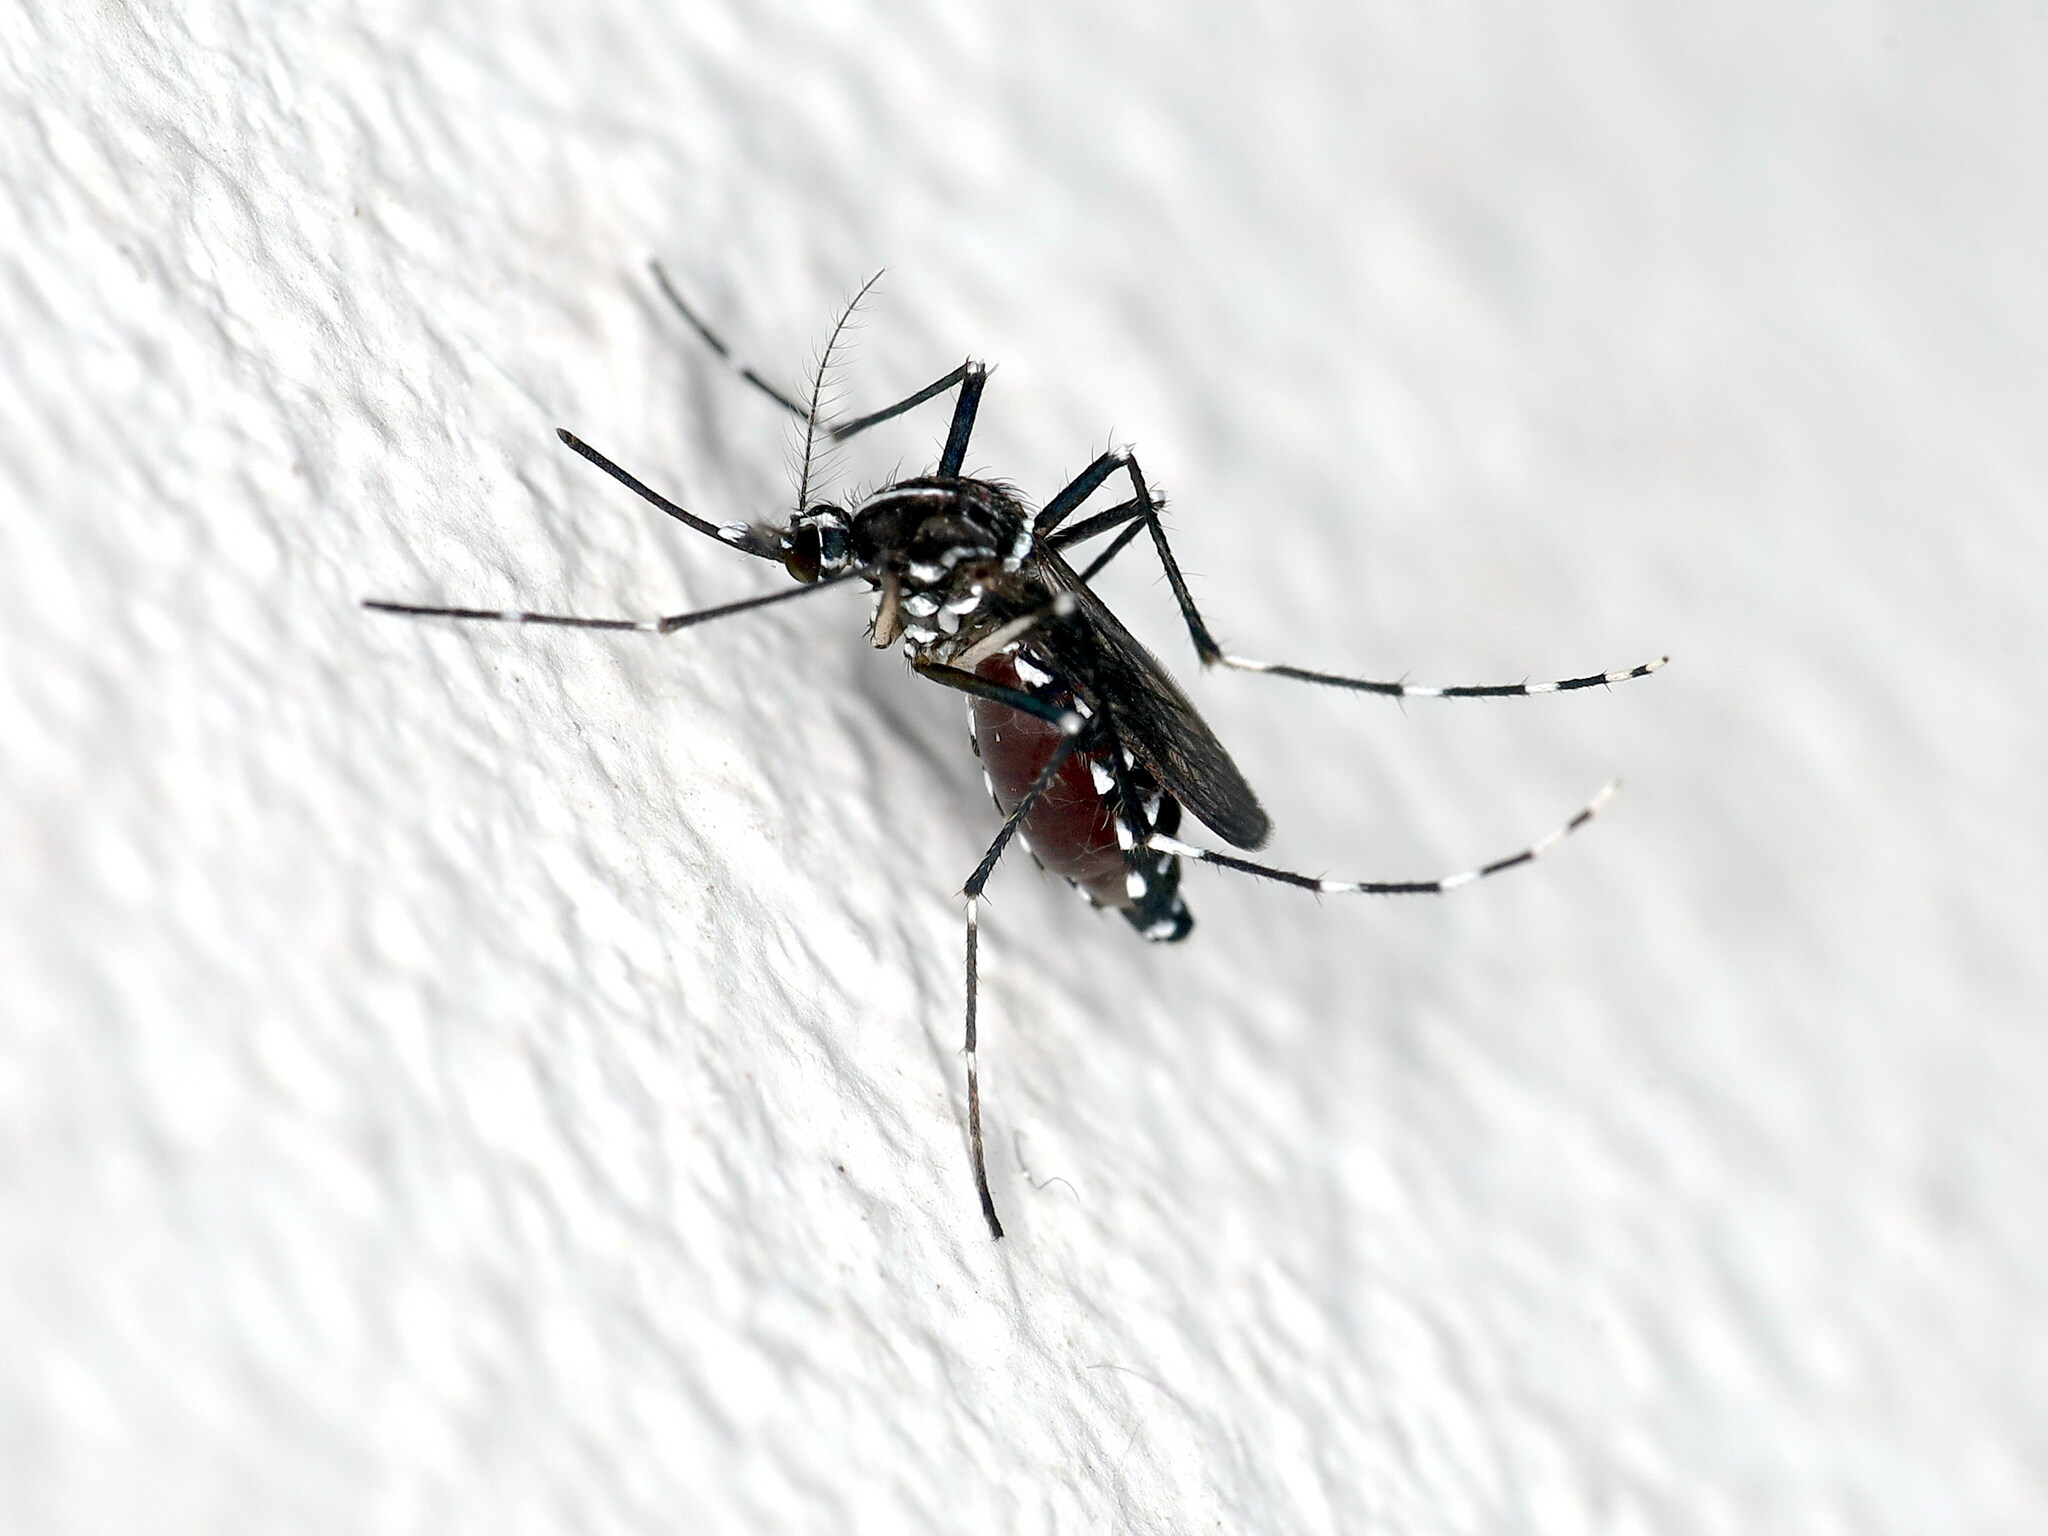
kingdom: Animalia
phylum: Arthropoda
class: Insecta
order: Diptera
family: Culicidae
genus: Aedes
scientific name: Aedes albopictus
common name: Tiger mosquito
